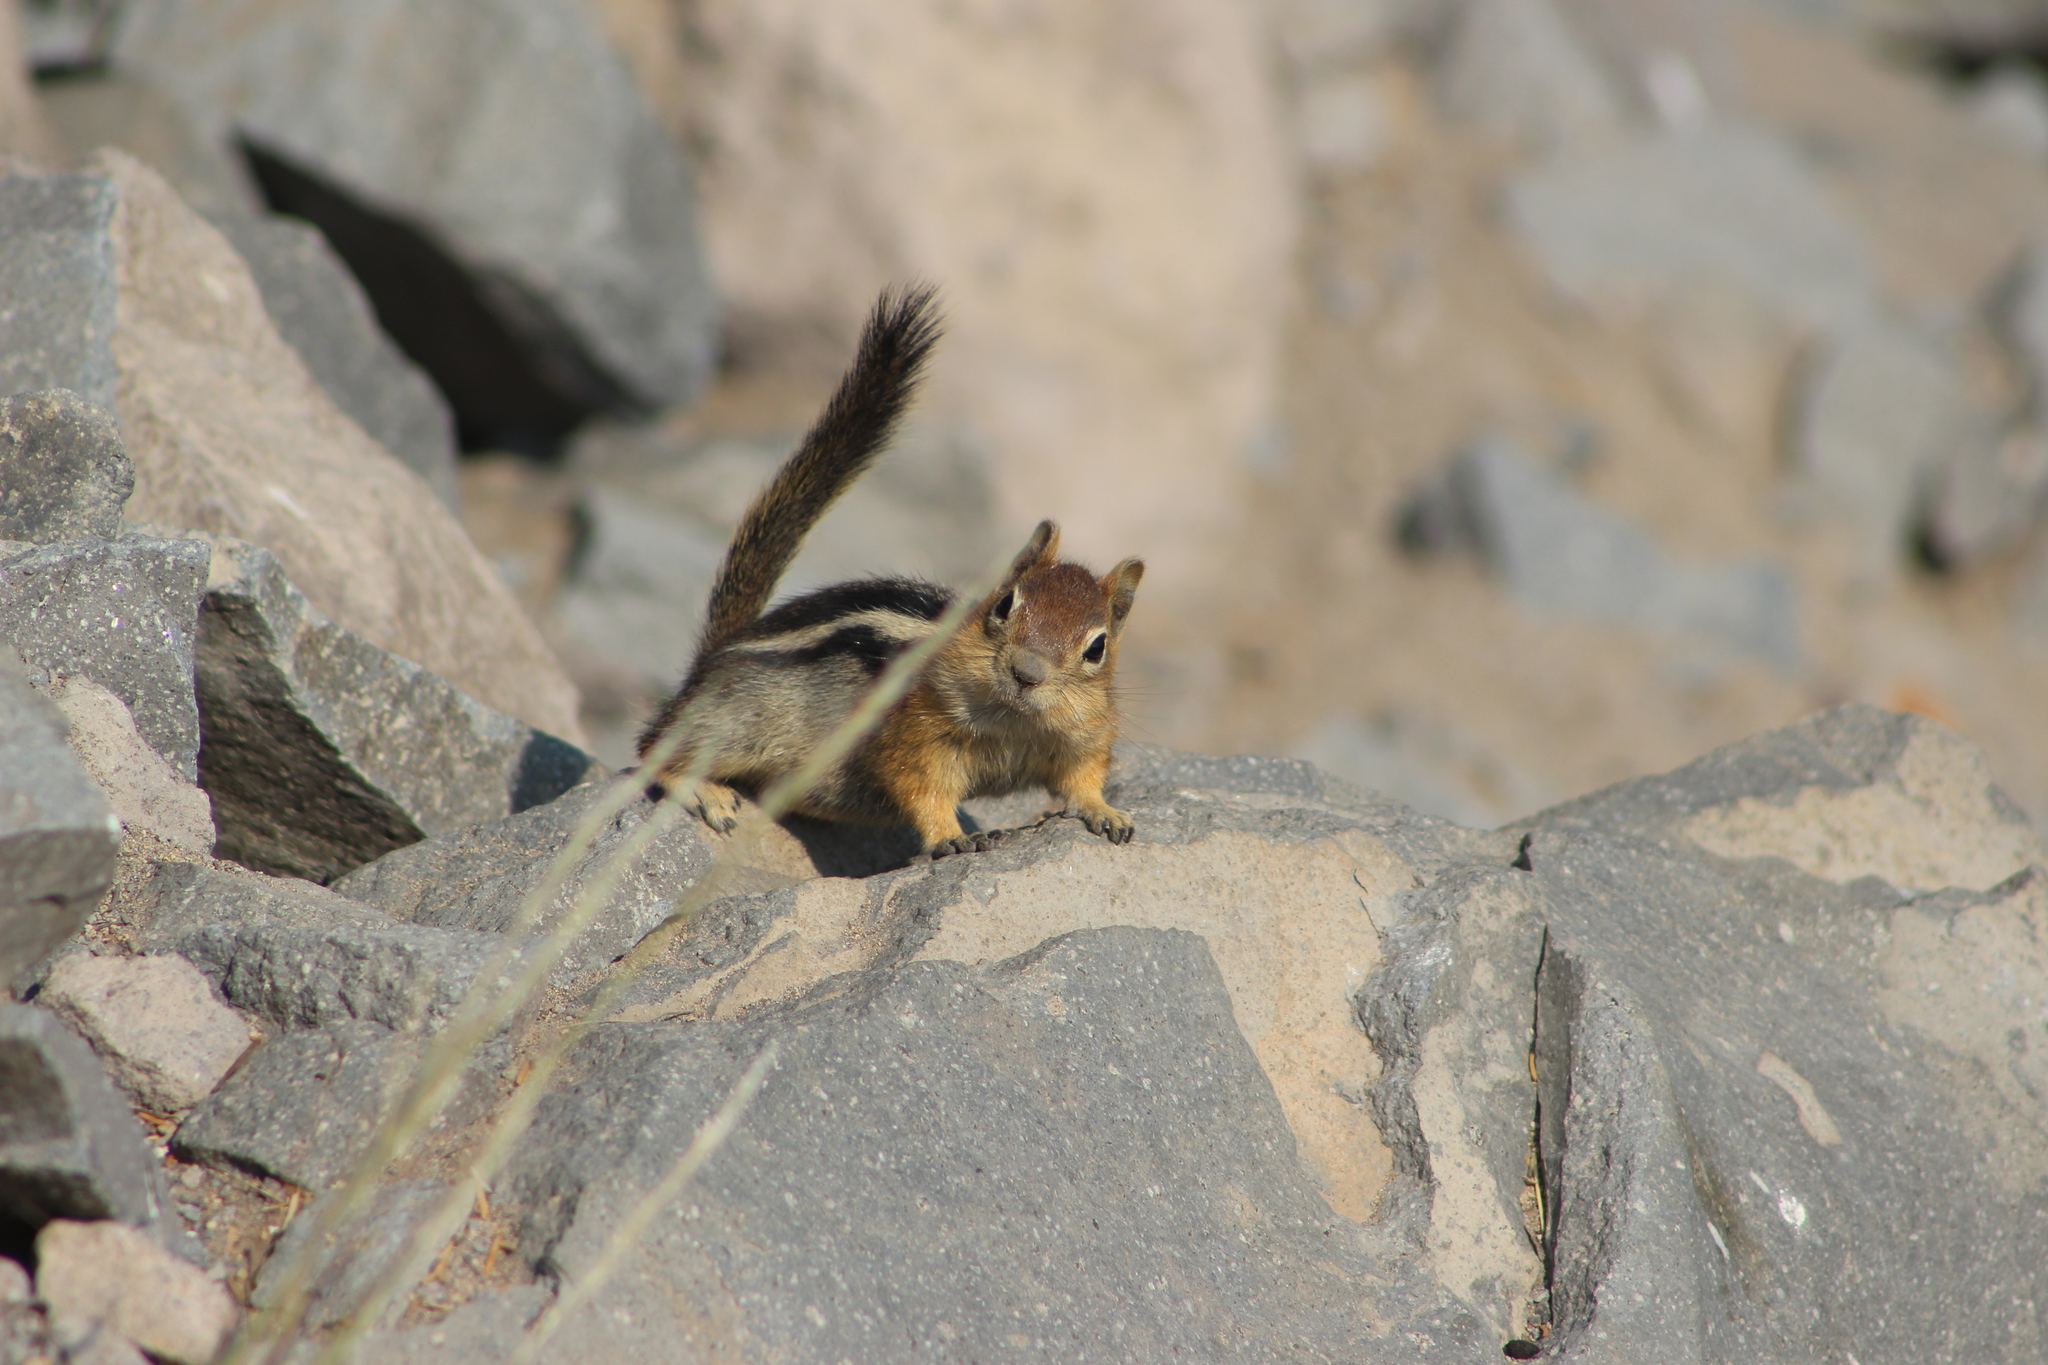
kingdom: Animalia
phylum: Chordata
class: Mammalia
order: Rodentia
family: Sciuridae
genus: Callospermophilus
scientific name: Callospermophilus lateralis
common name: Golden-mantled ground squirrel
